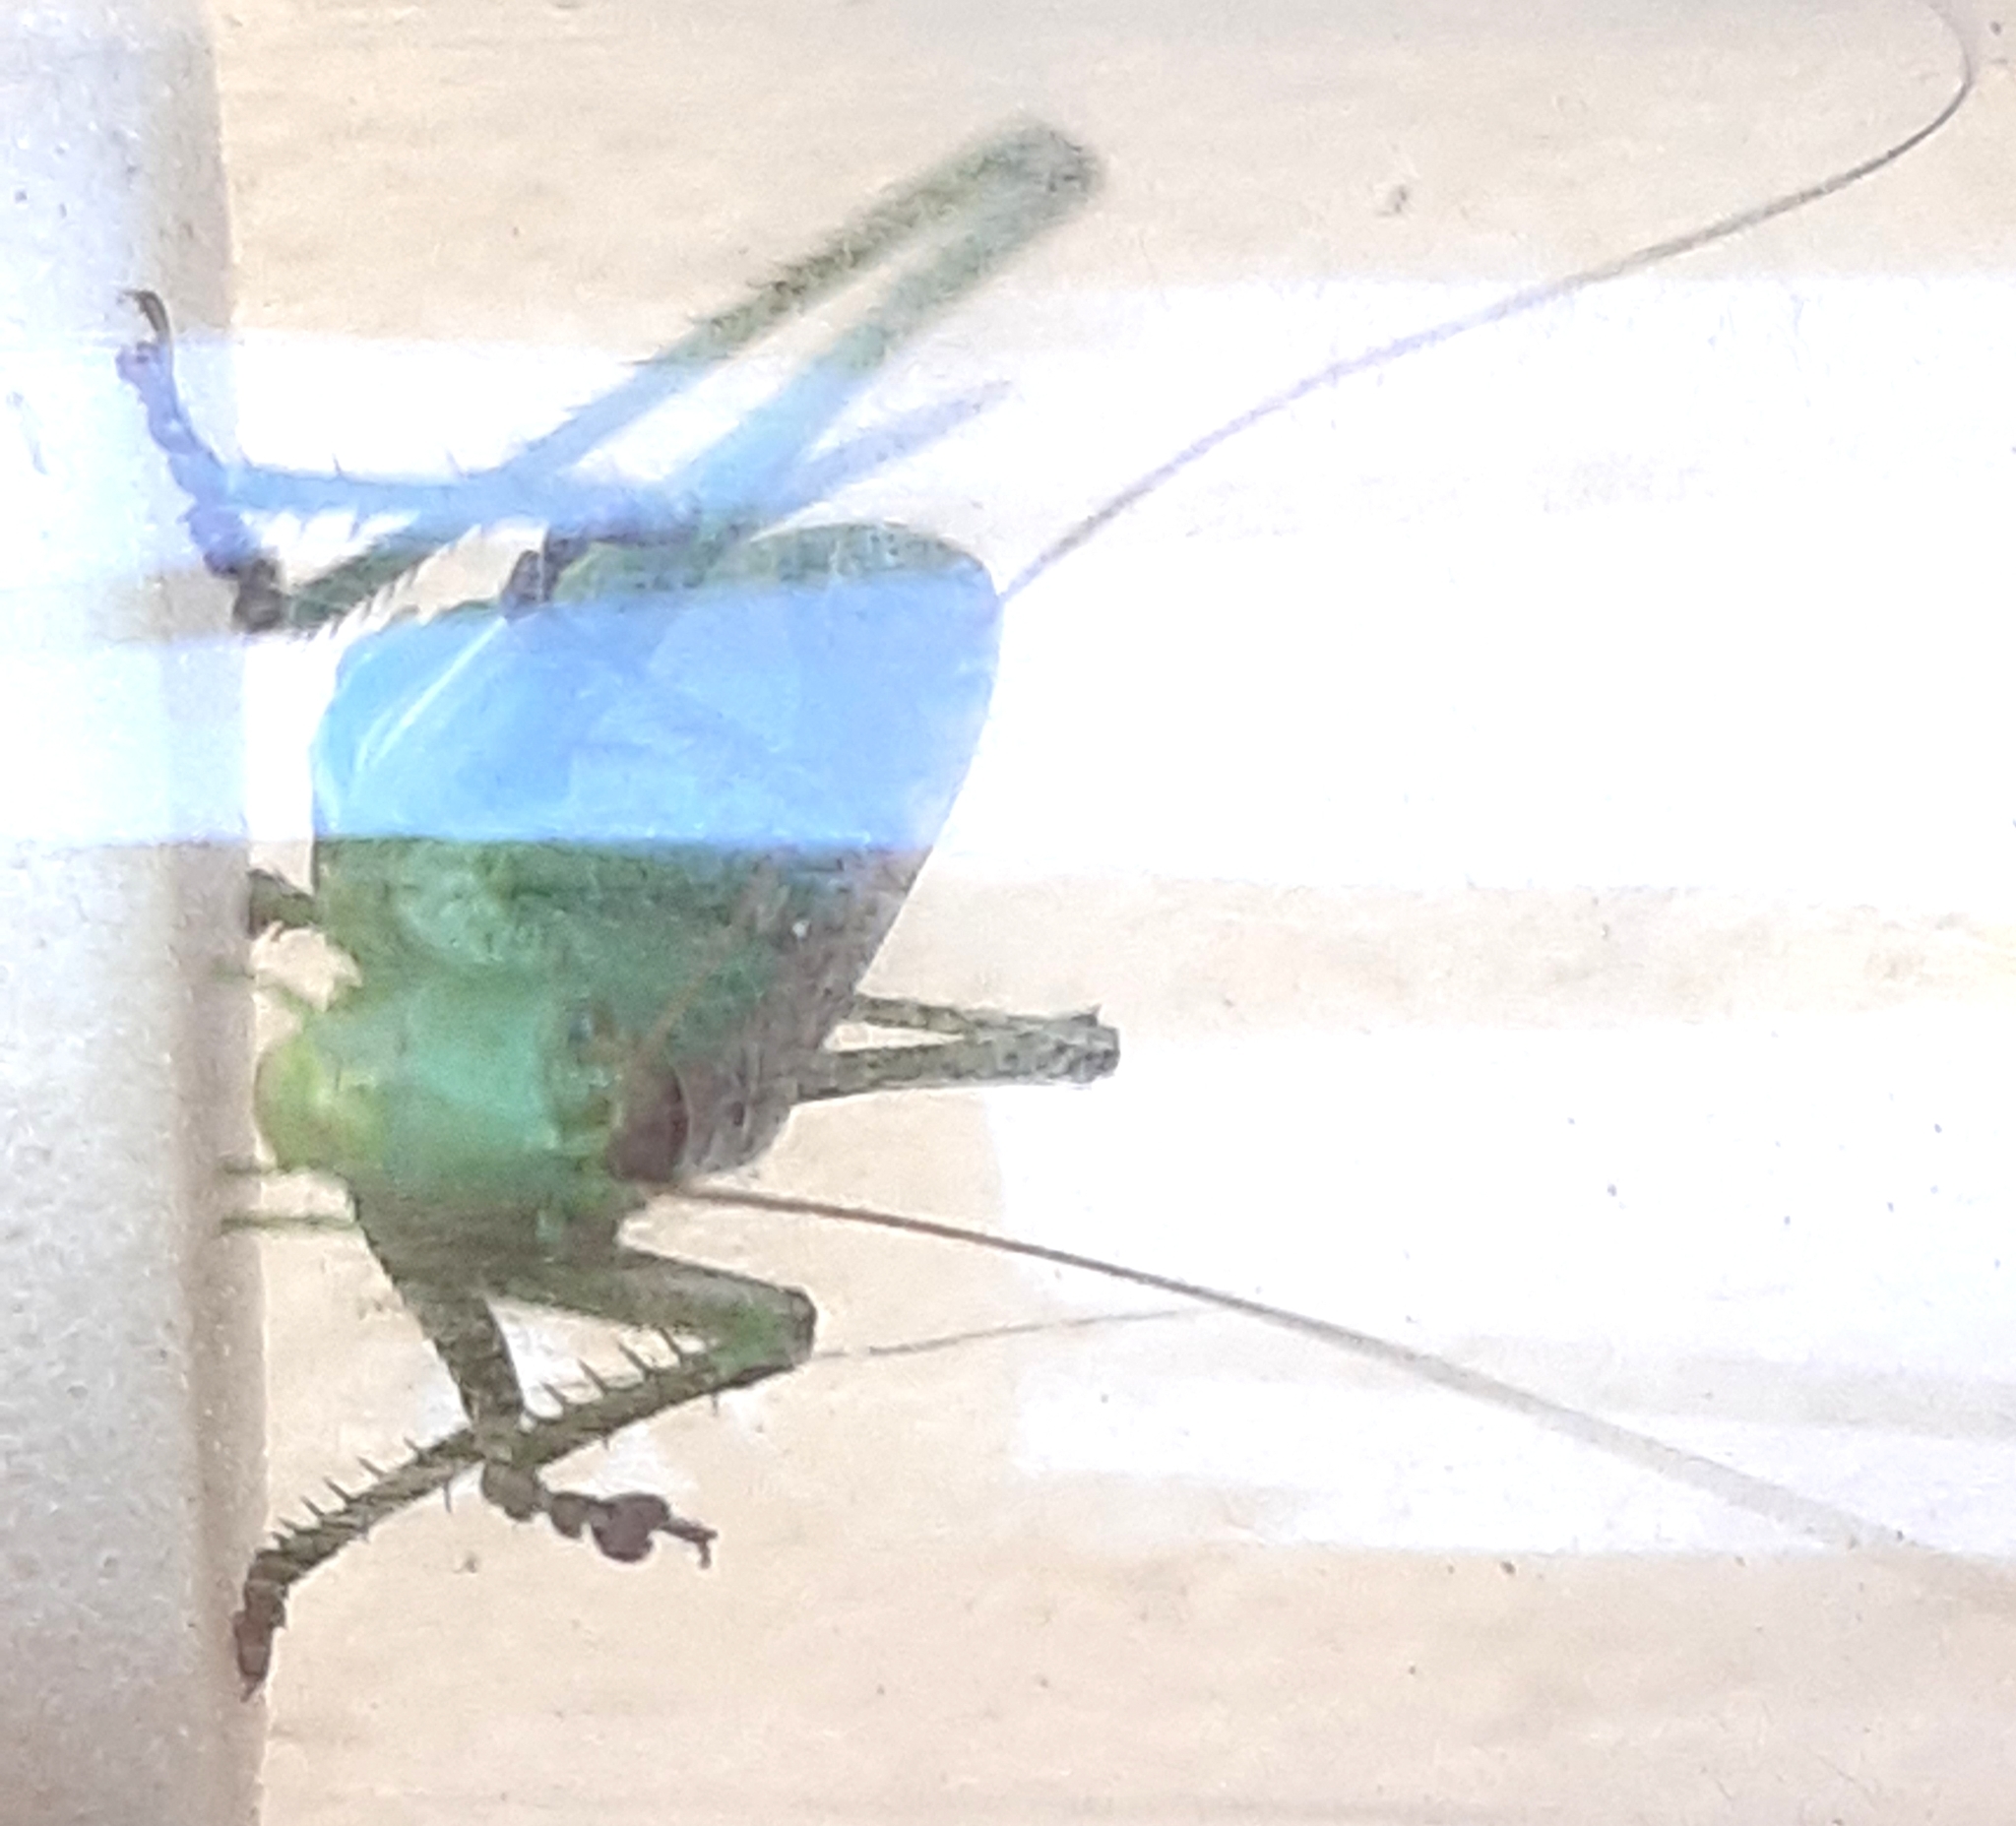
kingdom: Animalia
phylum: Arthropoda
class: Insecta
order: Orthoptera
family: Tettigoniidae
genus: Tettigonia
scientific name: Tettigonia cantans
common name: Upland green bush-cricket
